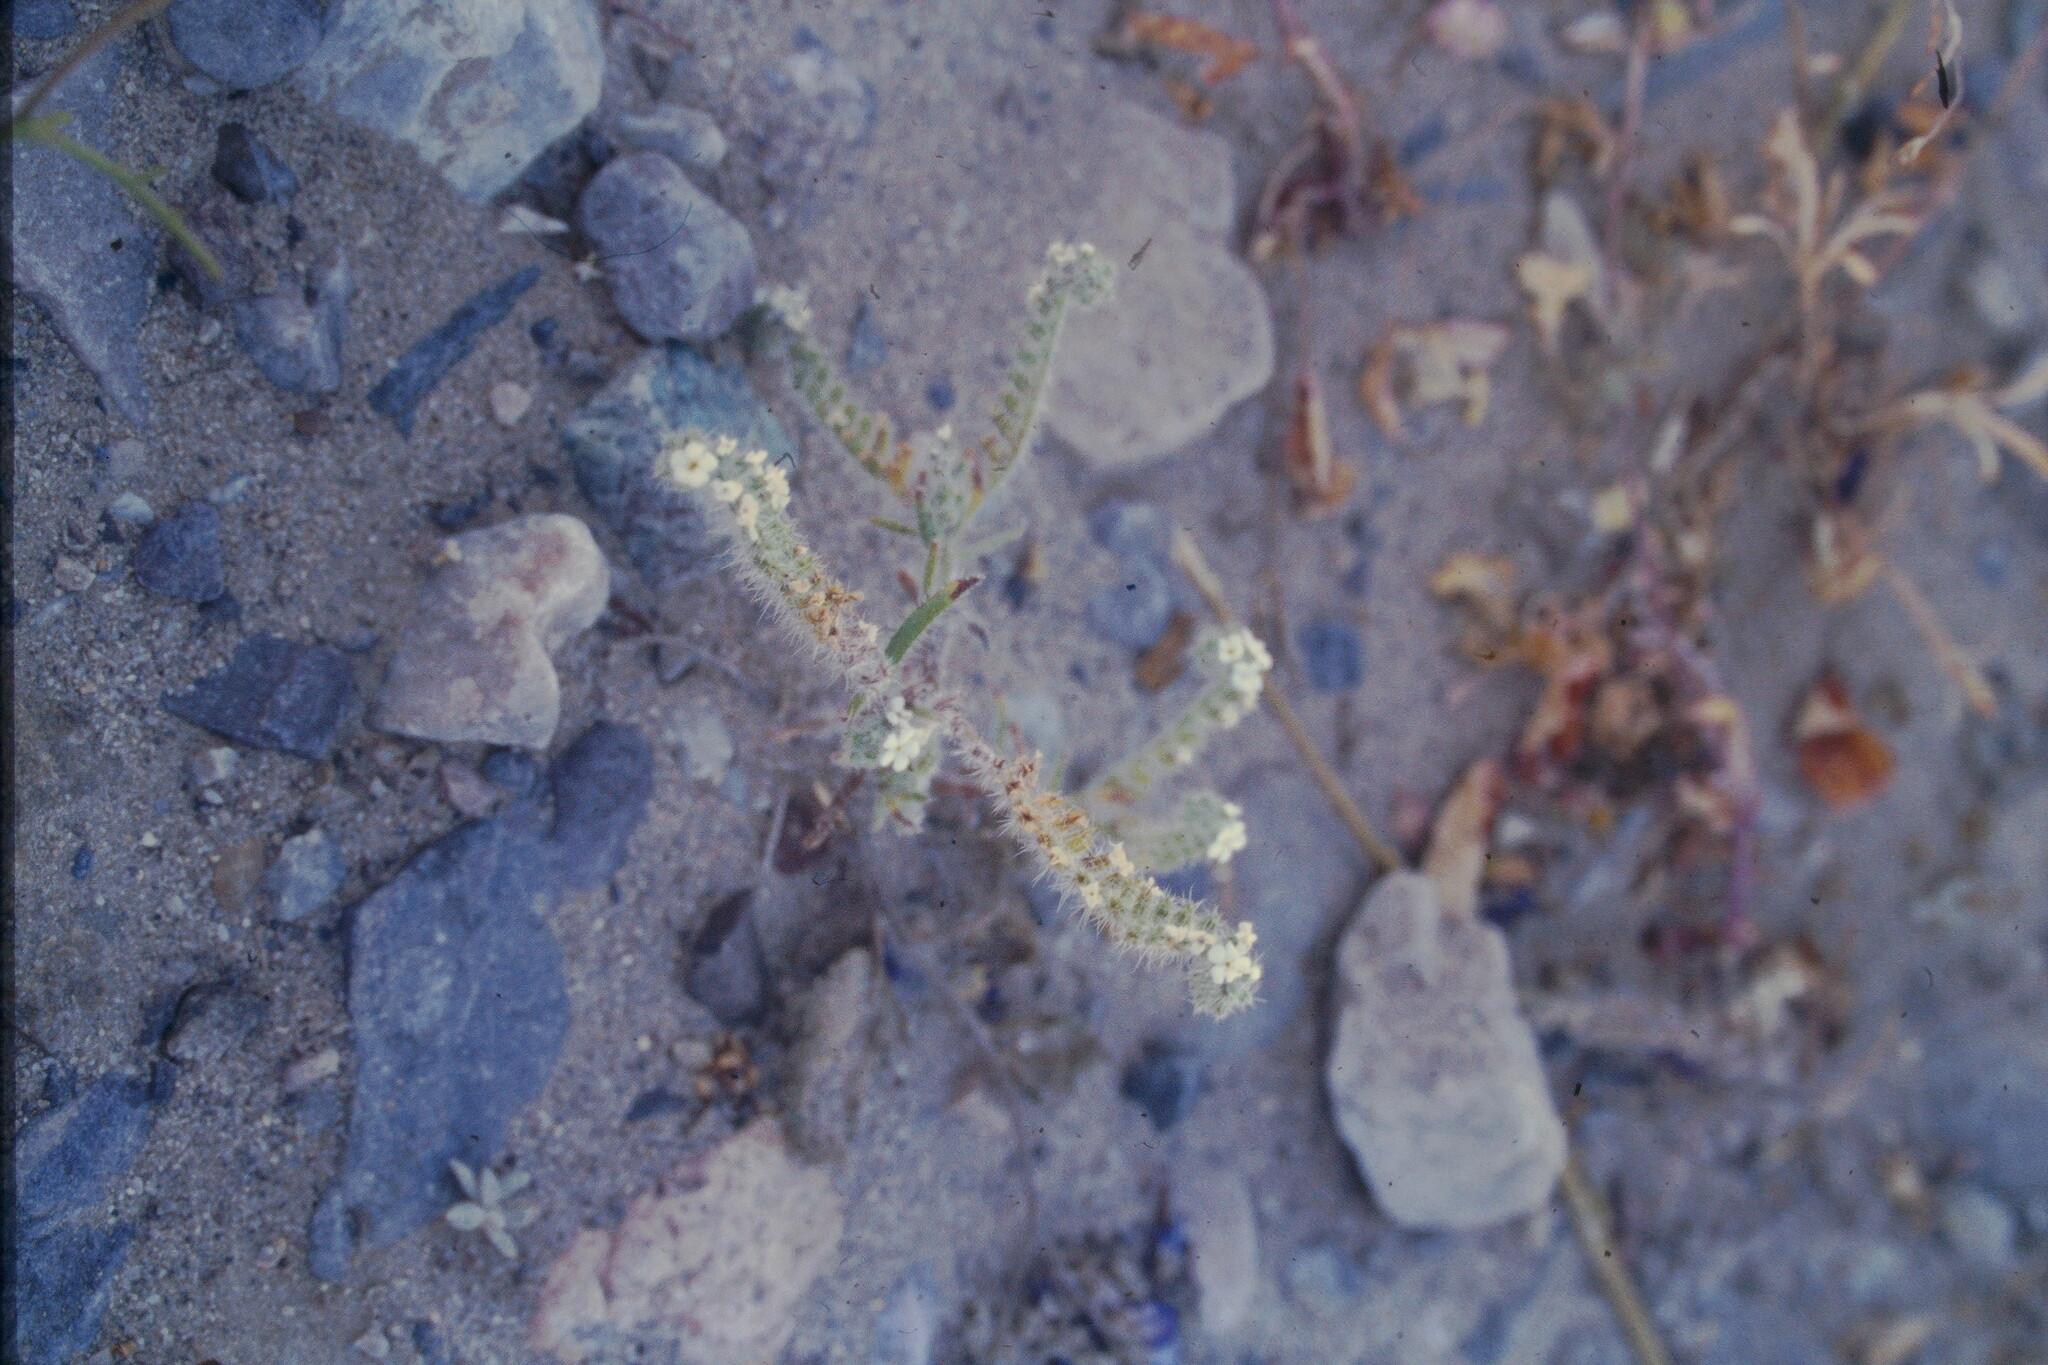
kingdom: Plantae
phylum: Tracheophyta
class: Magnoliopsida
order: Boraginales
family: Boraginaceae
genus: Johnstonella
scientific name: Johnstonella angustifolia
